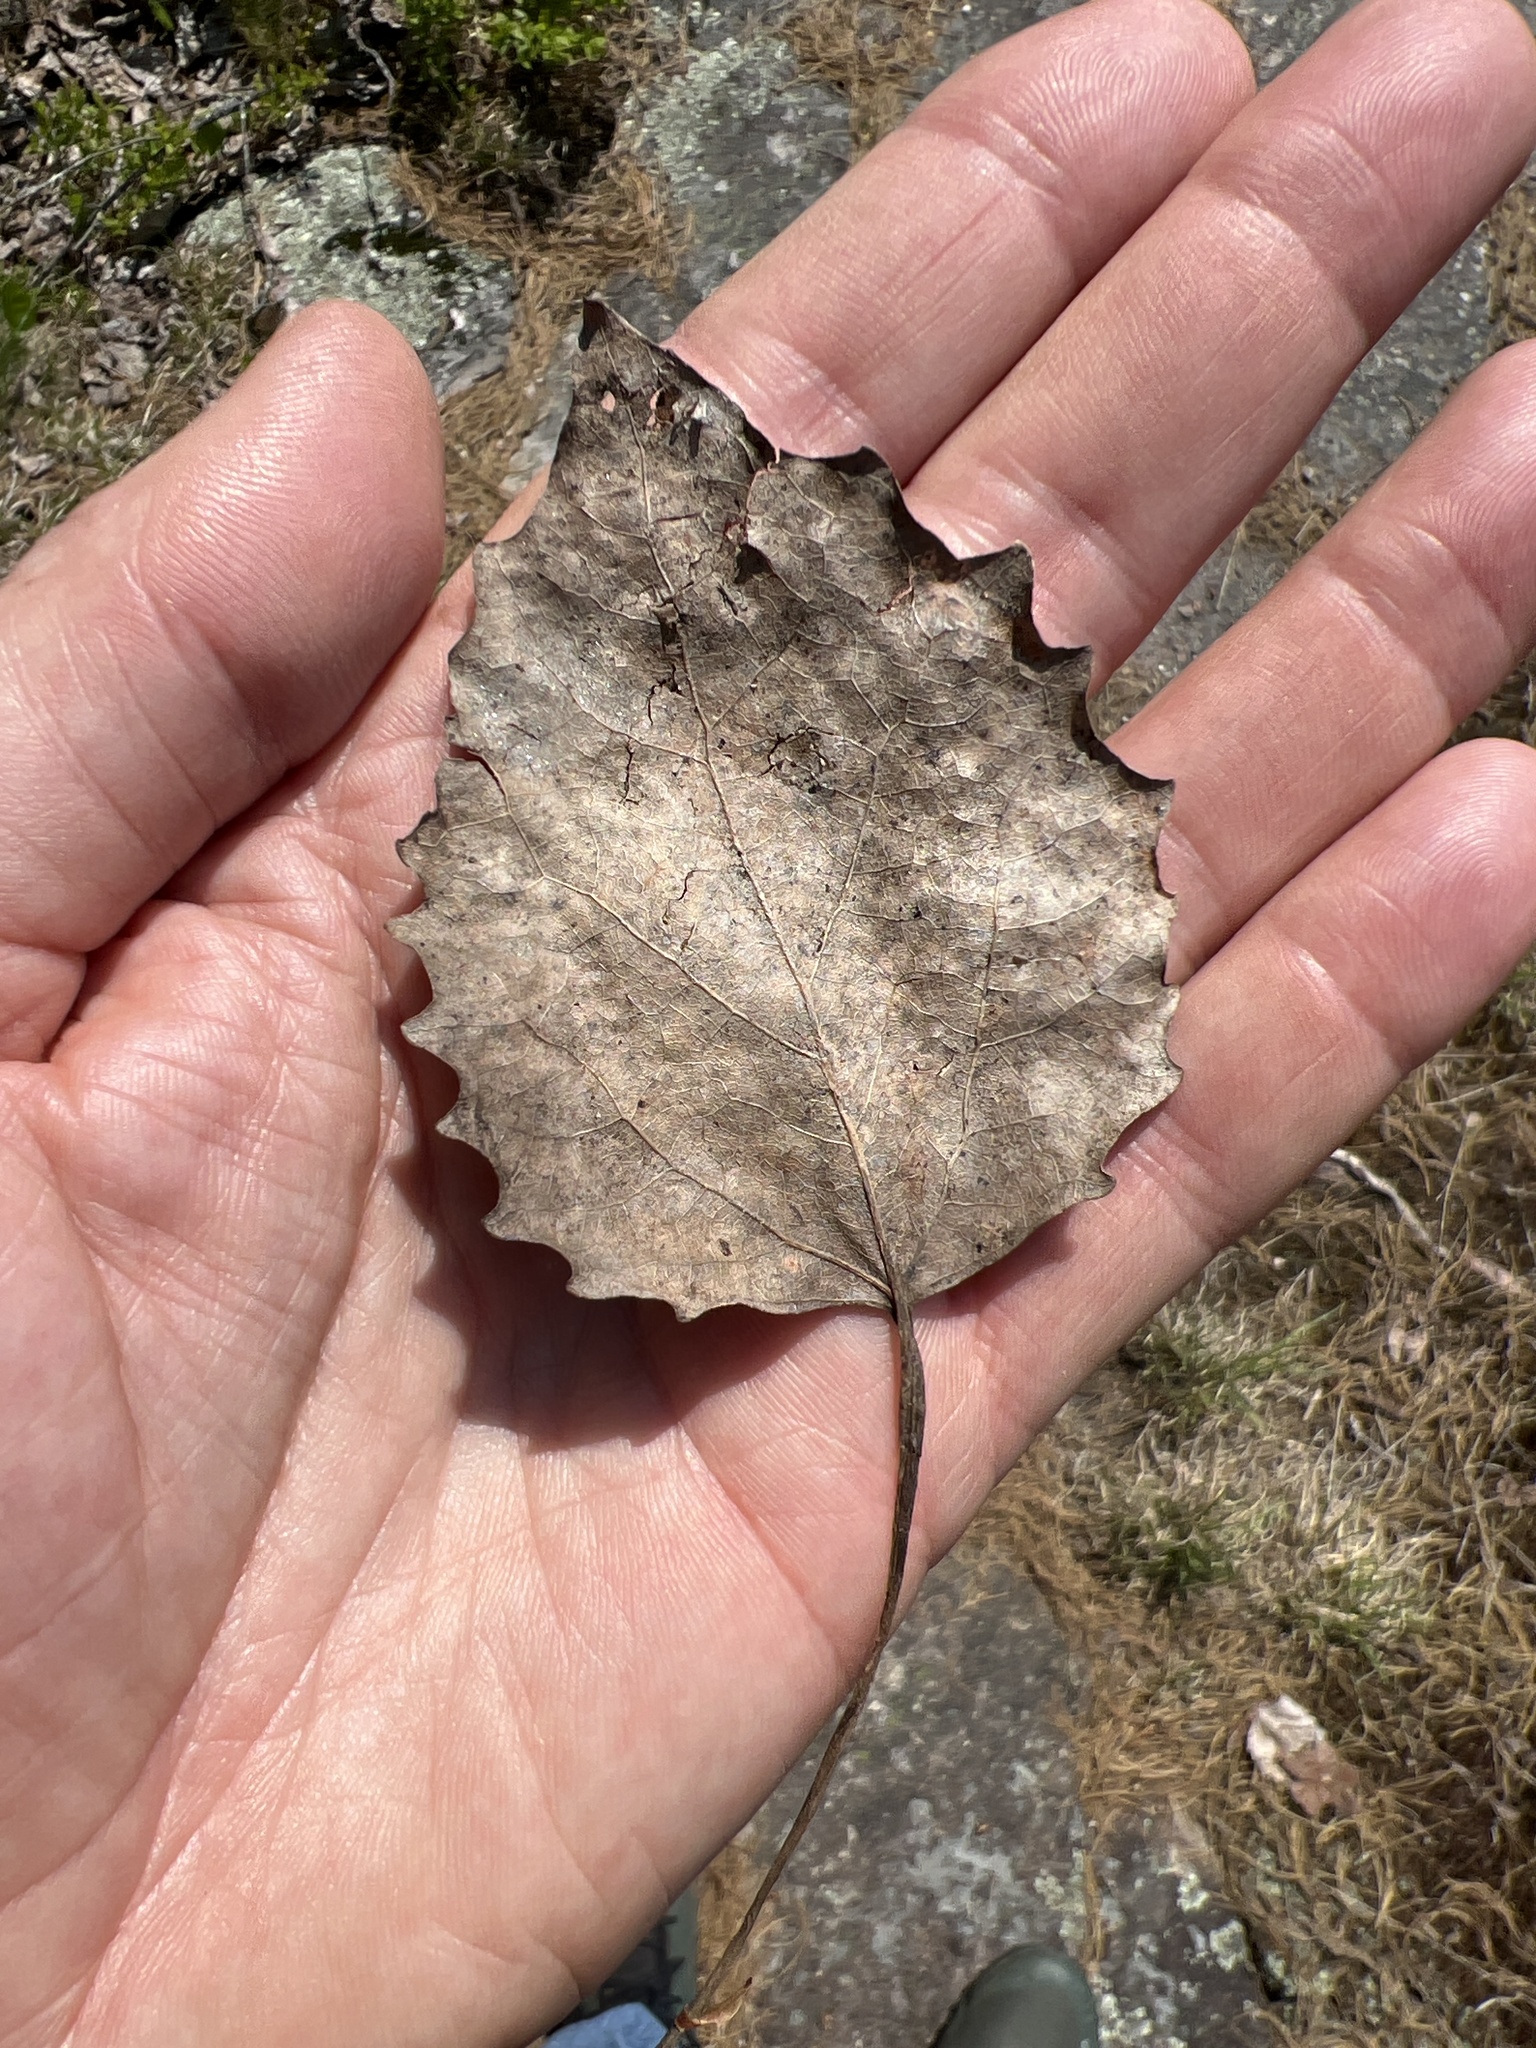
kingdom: Plantae
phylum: Tracheophyta
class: Magnoliopsida
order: Malpighiales
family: Salicaceae
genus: Populus
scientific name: Populus grandidentata
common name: Bigtooth aspen
